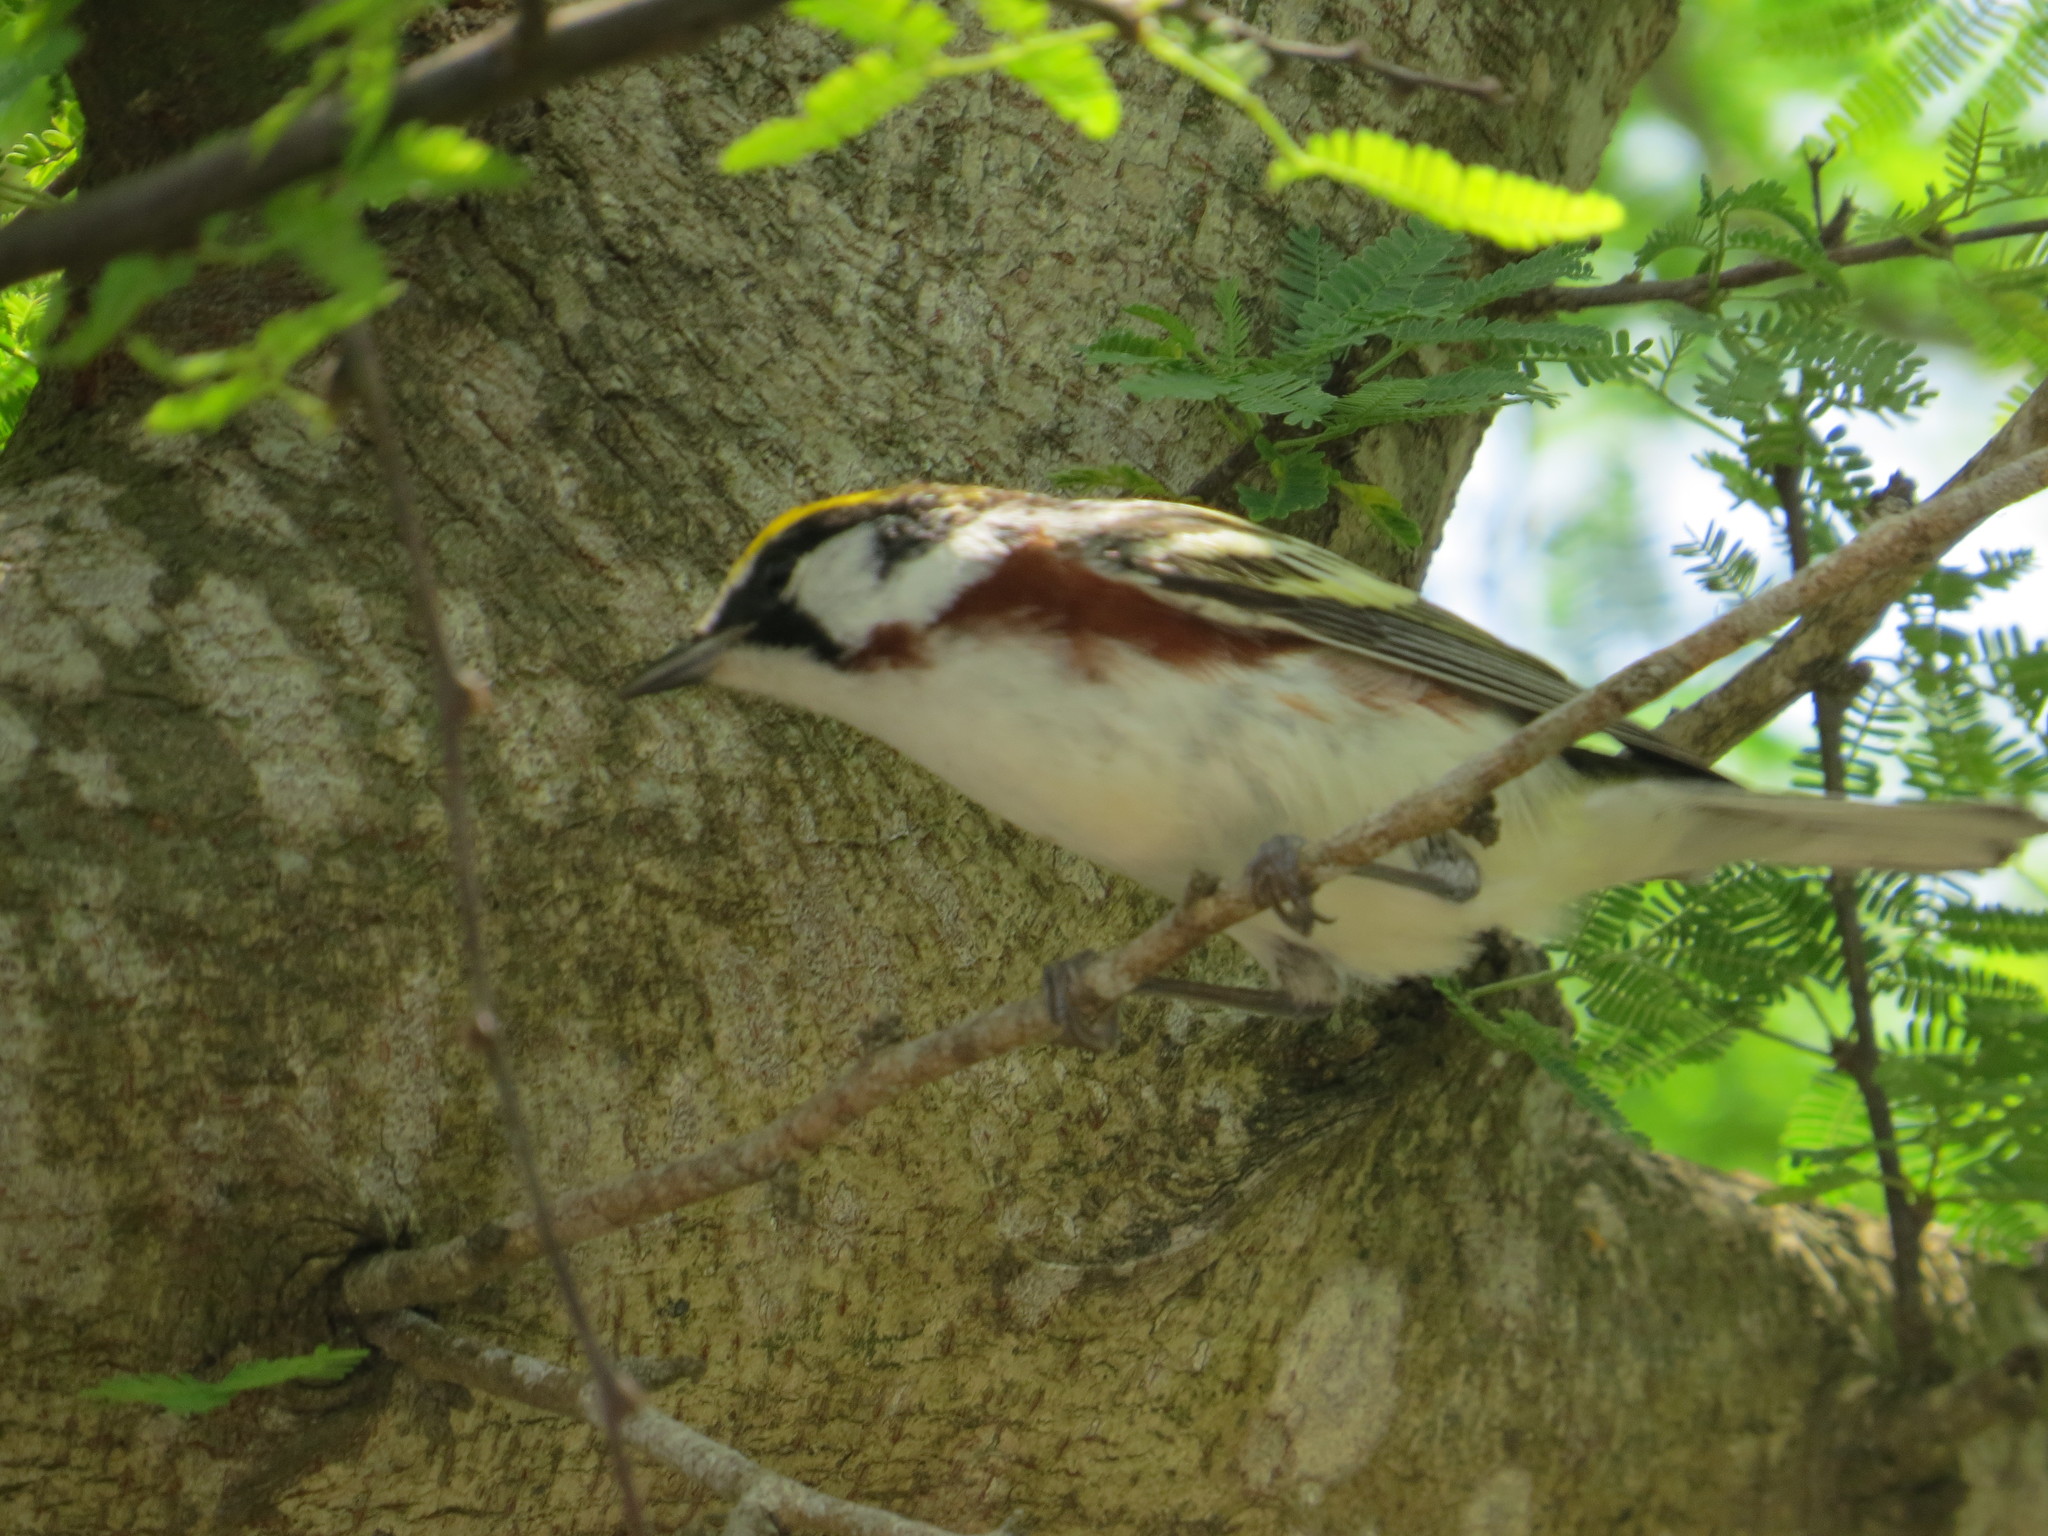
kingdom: Animalia
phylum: Chordata
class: Aves
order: Passeriformes
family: Parulidae
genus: Setophaga
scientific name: Setophaga pensylvanica
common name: Chestnut-sided warbler
